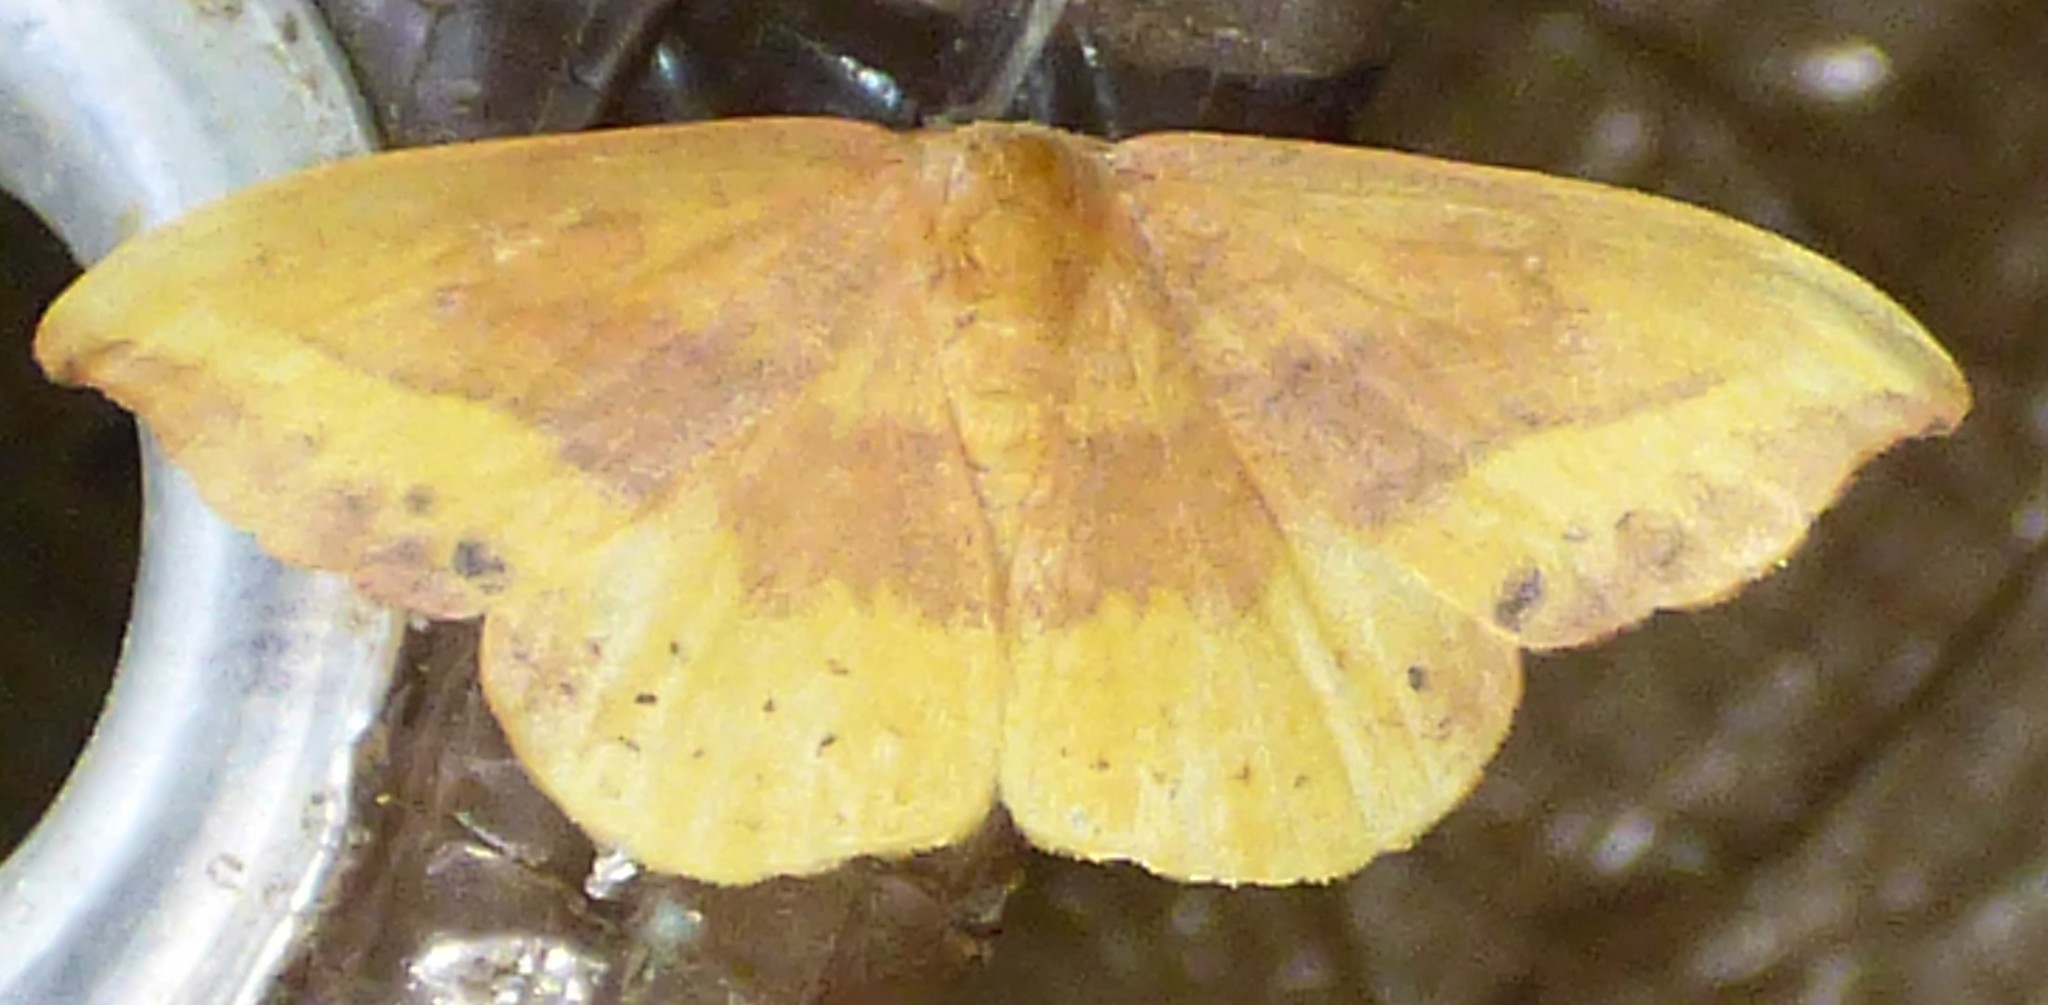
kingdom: Animalia
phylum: Arthropoda
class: Insecta
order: Lepidoptera
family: Drepanidae
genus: Oreta
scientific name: Oreta rosea
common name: Rose hooktip
